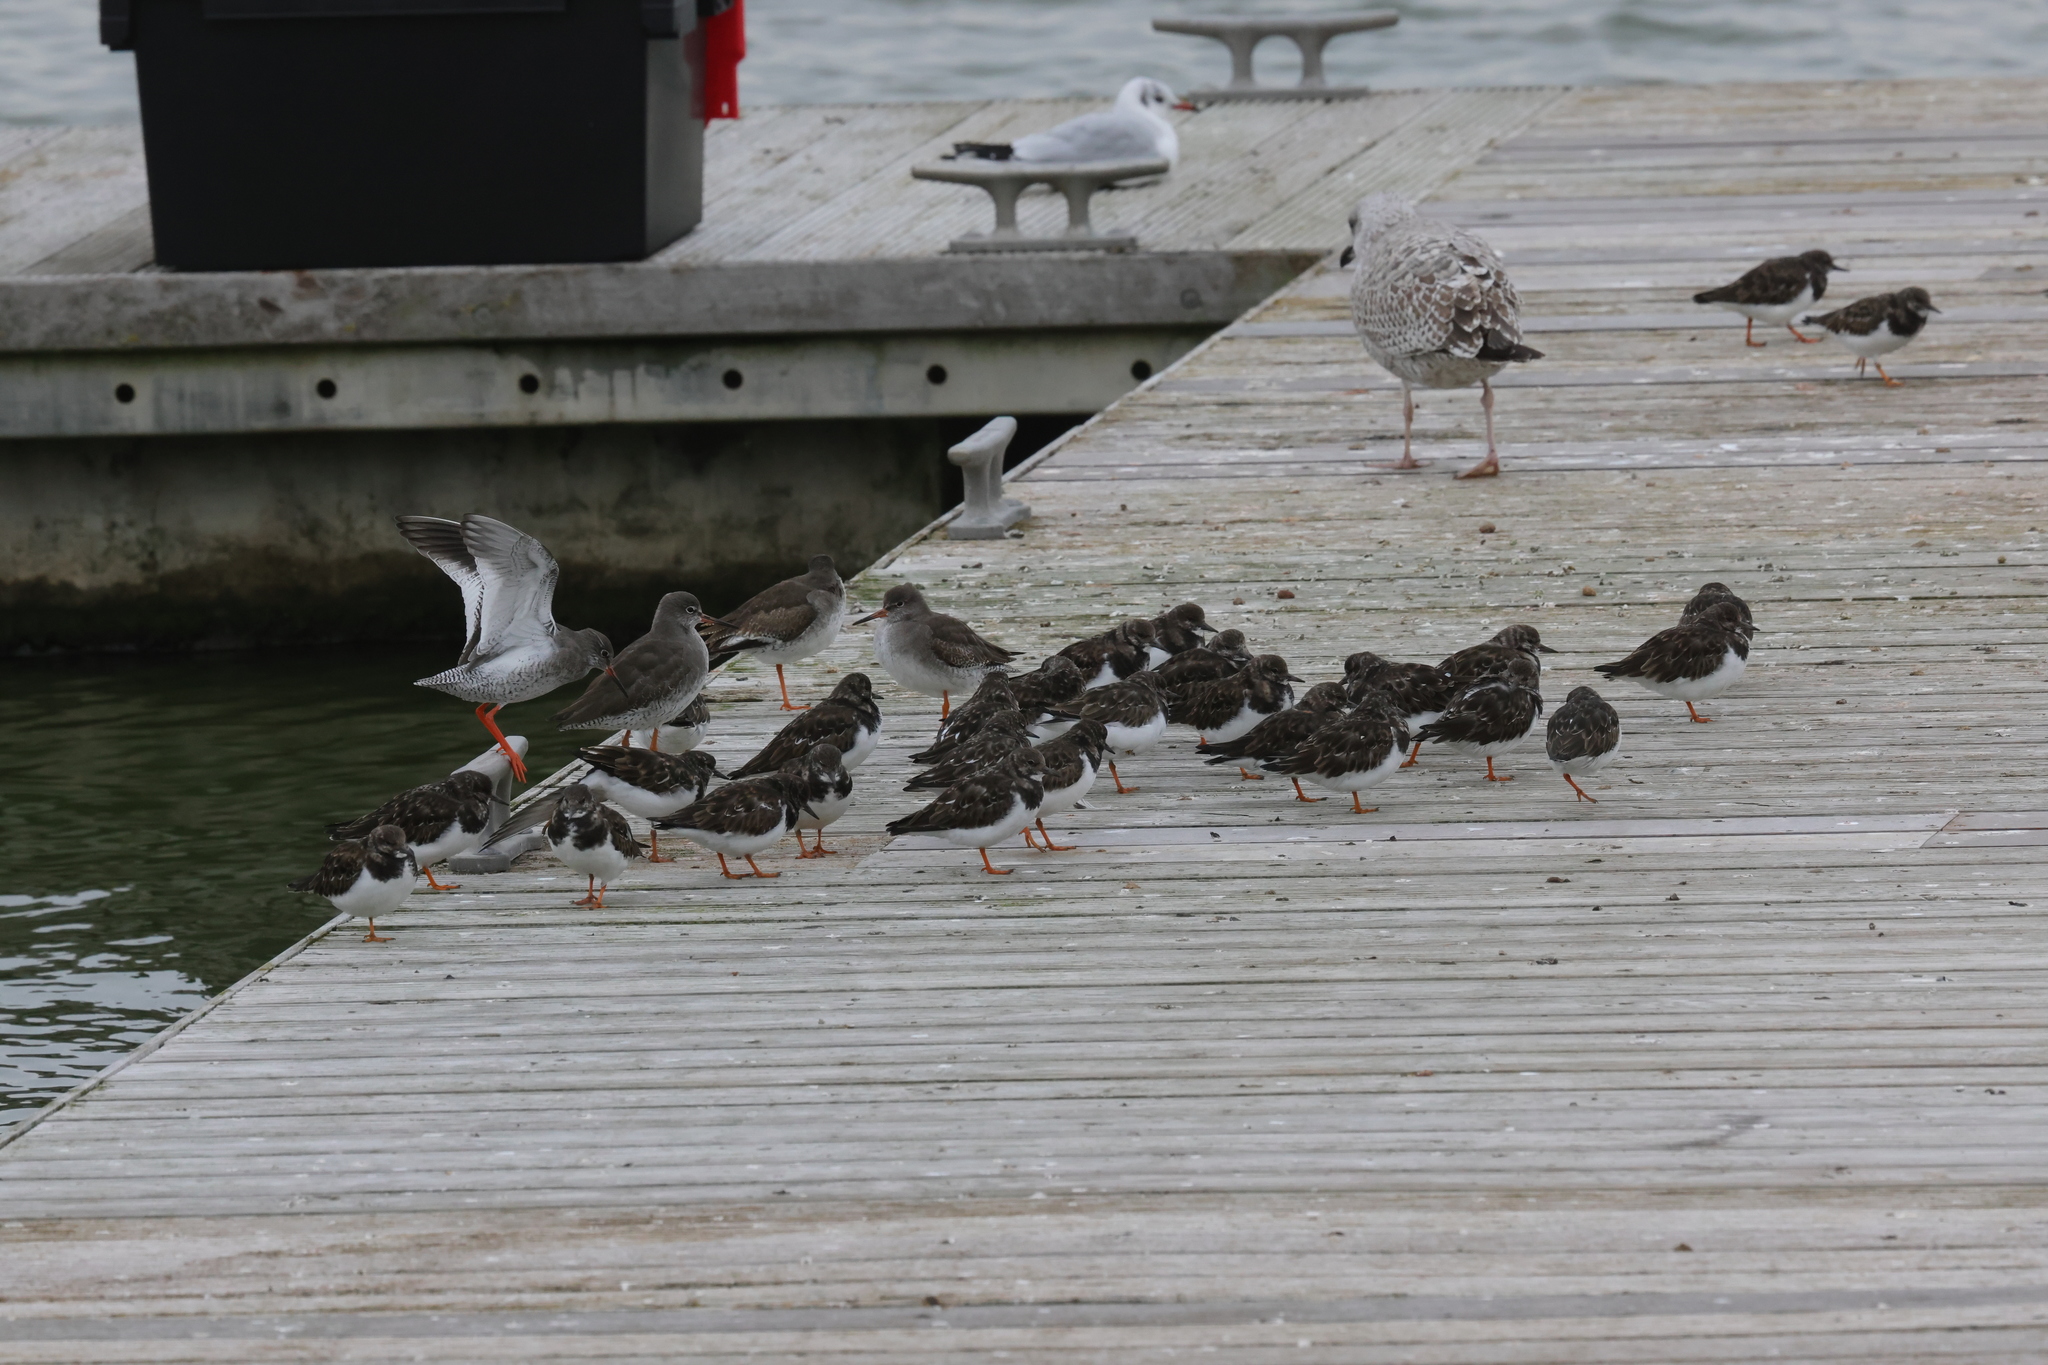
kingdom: Animalia
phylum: Chordata
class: Aves
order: Charadriiformes
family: Scolopacidae
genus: Tringa
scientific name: Tringa totanus
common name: Common redshank
